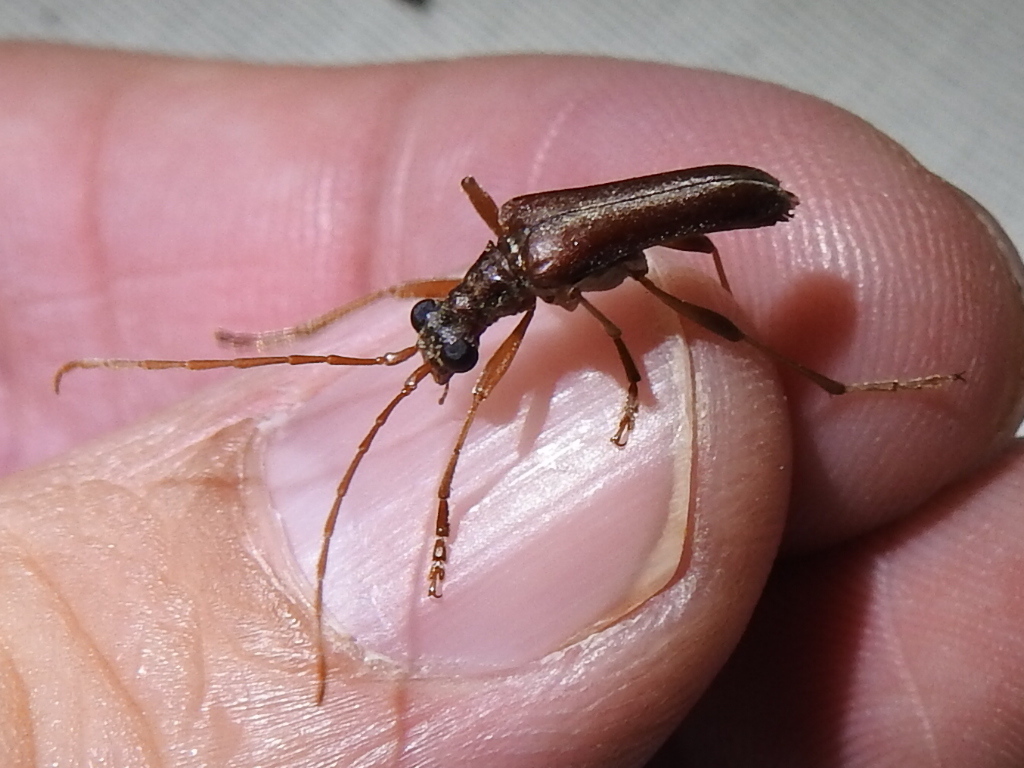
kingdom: Animalia
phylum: Arthropoda
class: Insecta
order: Coleoptera
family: Cerambycidae
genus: Stenocorus
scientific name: Stenocorus cinnamopterus
